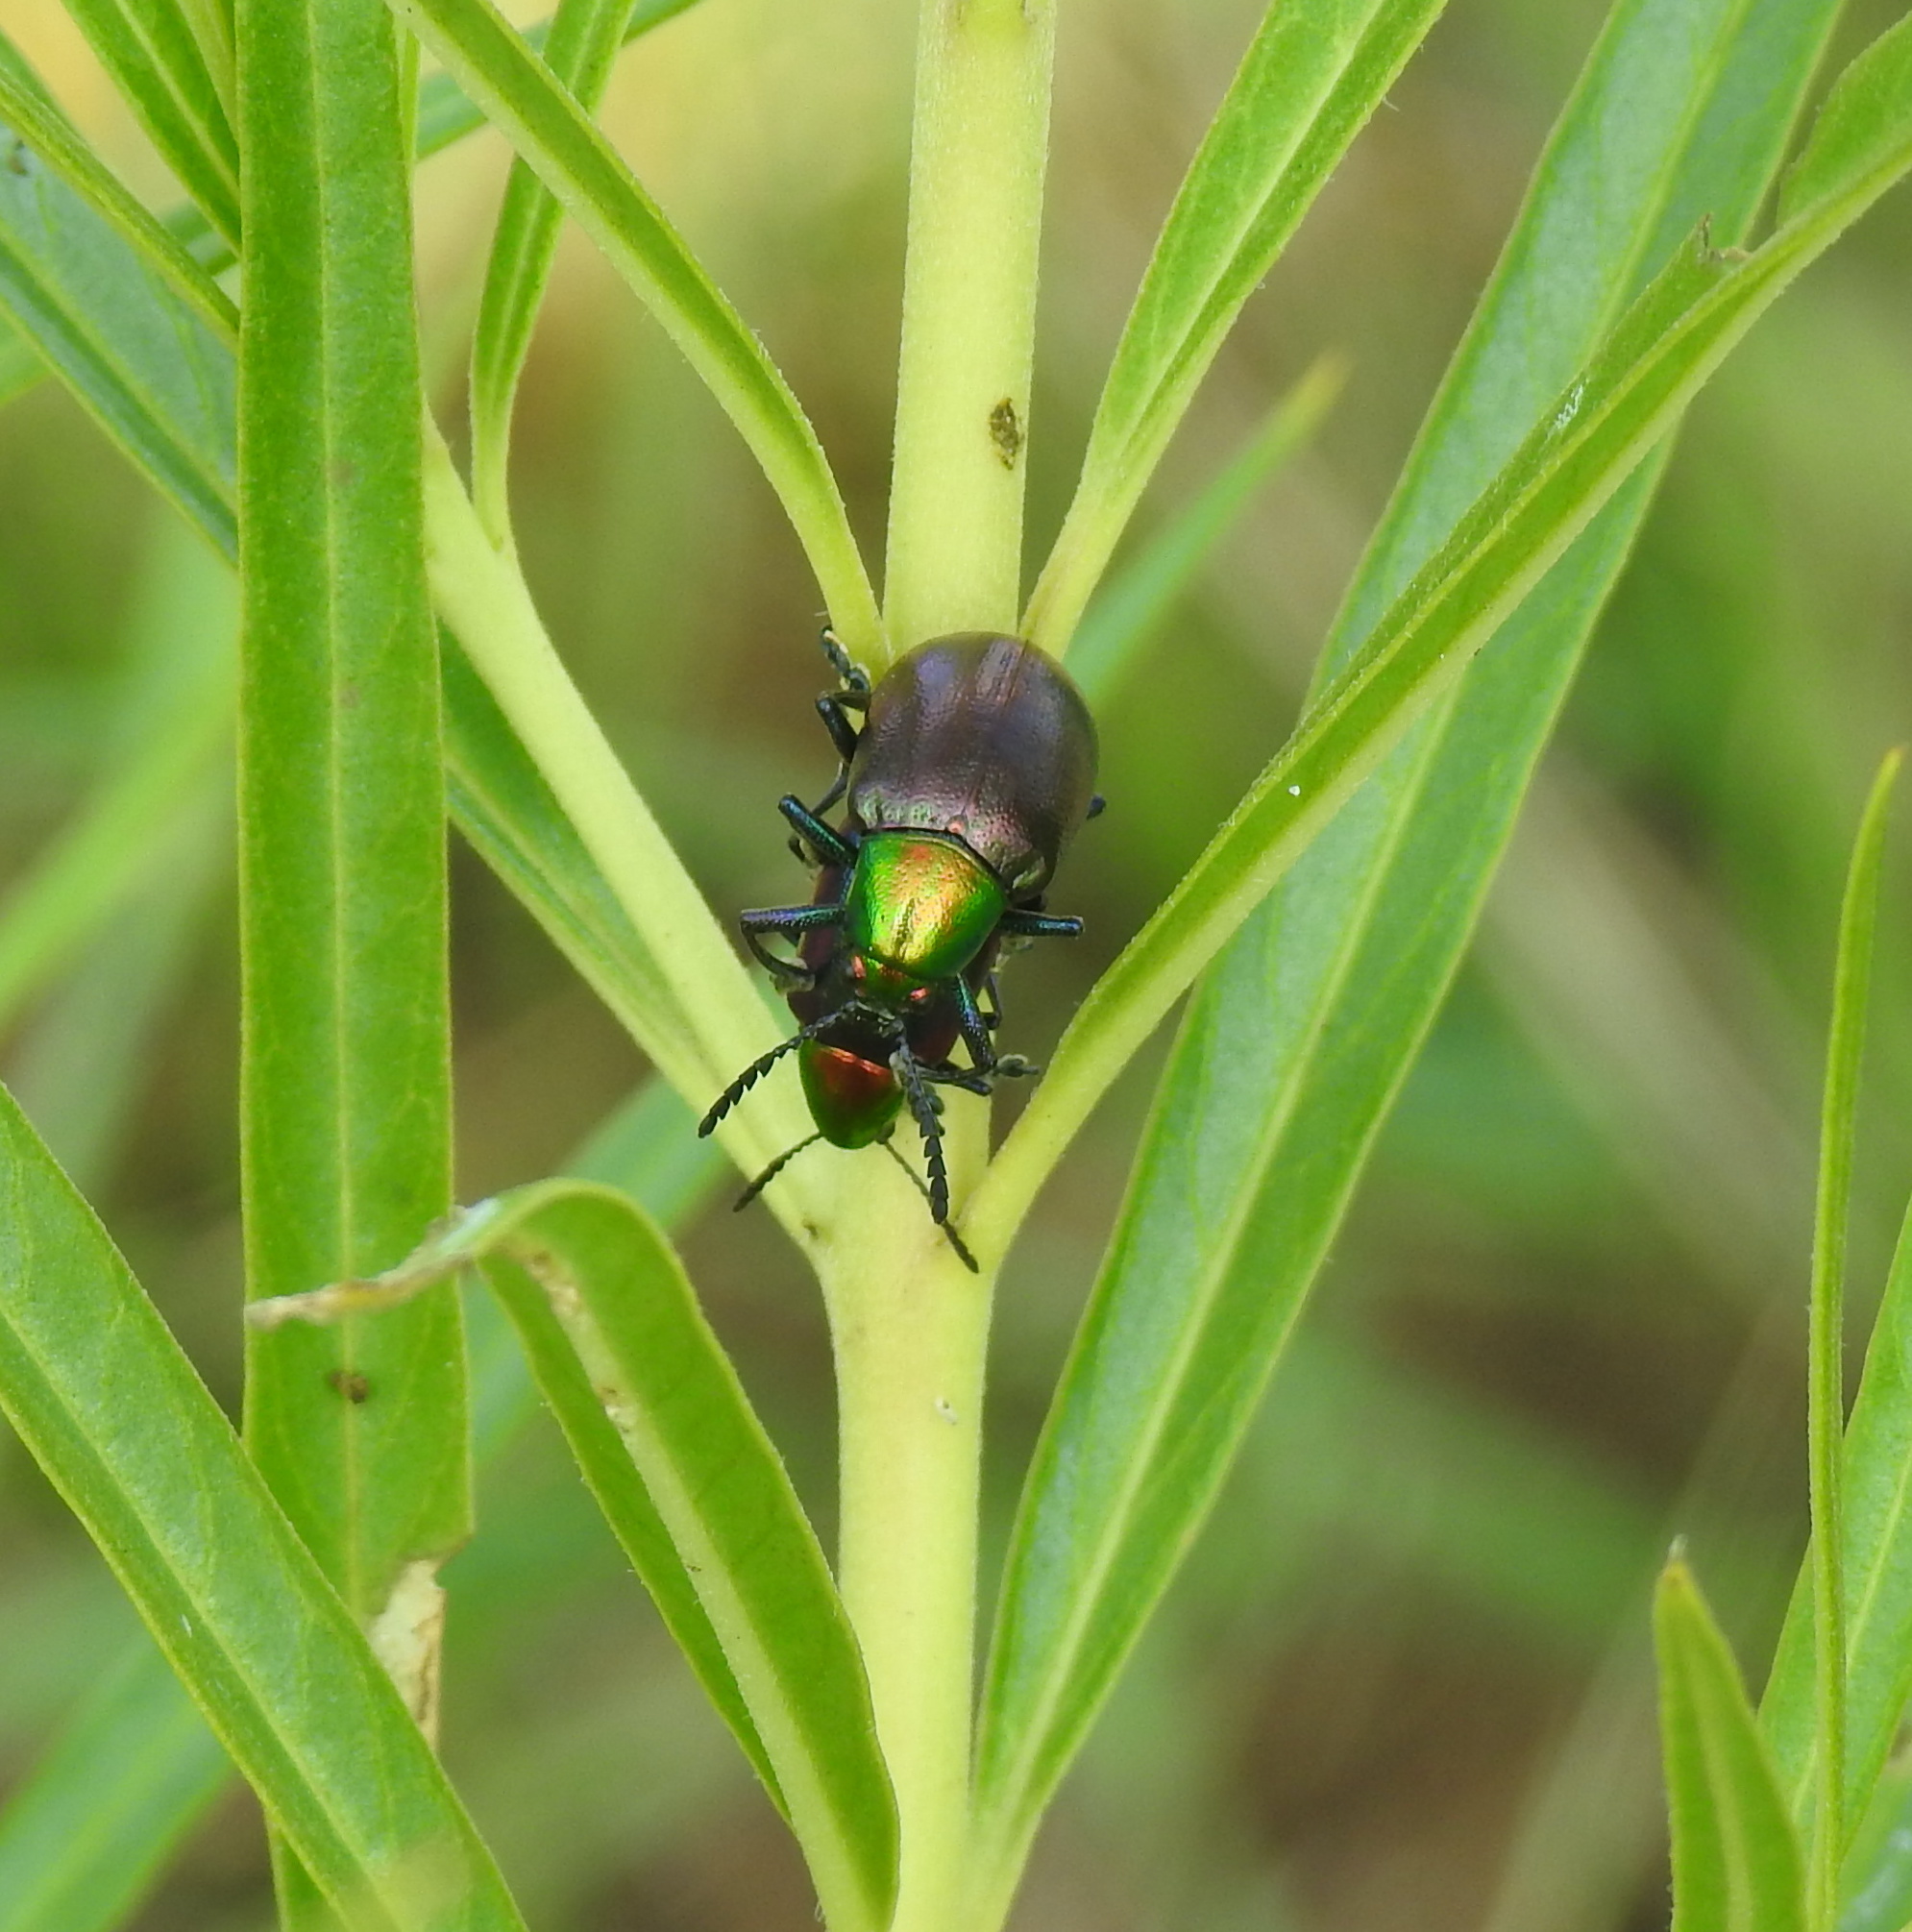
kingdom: Animalia
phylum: Arthropoda
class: Insecta
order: Coleoptera
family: Chrysomelidae
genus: Platycorynus
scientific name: Platycorynus dejeani
